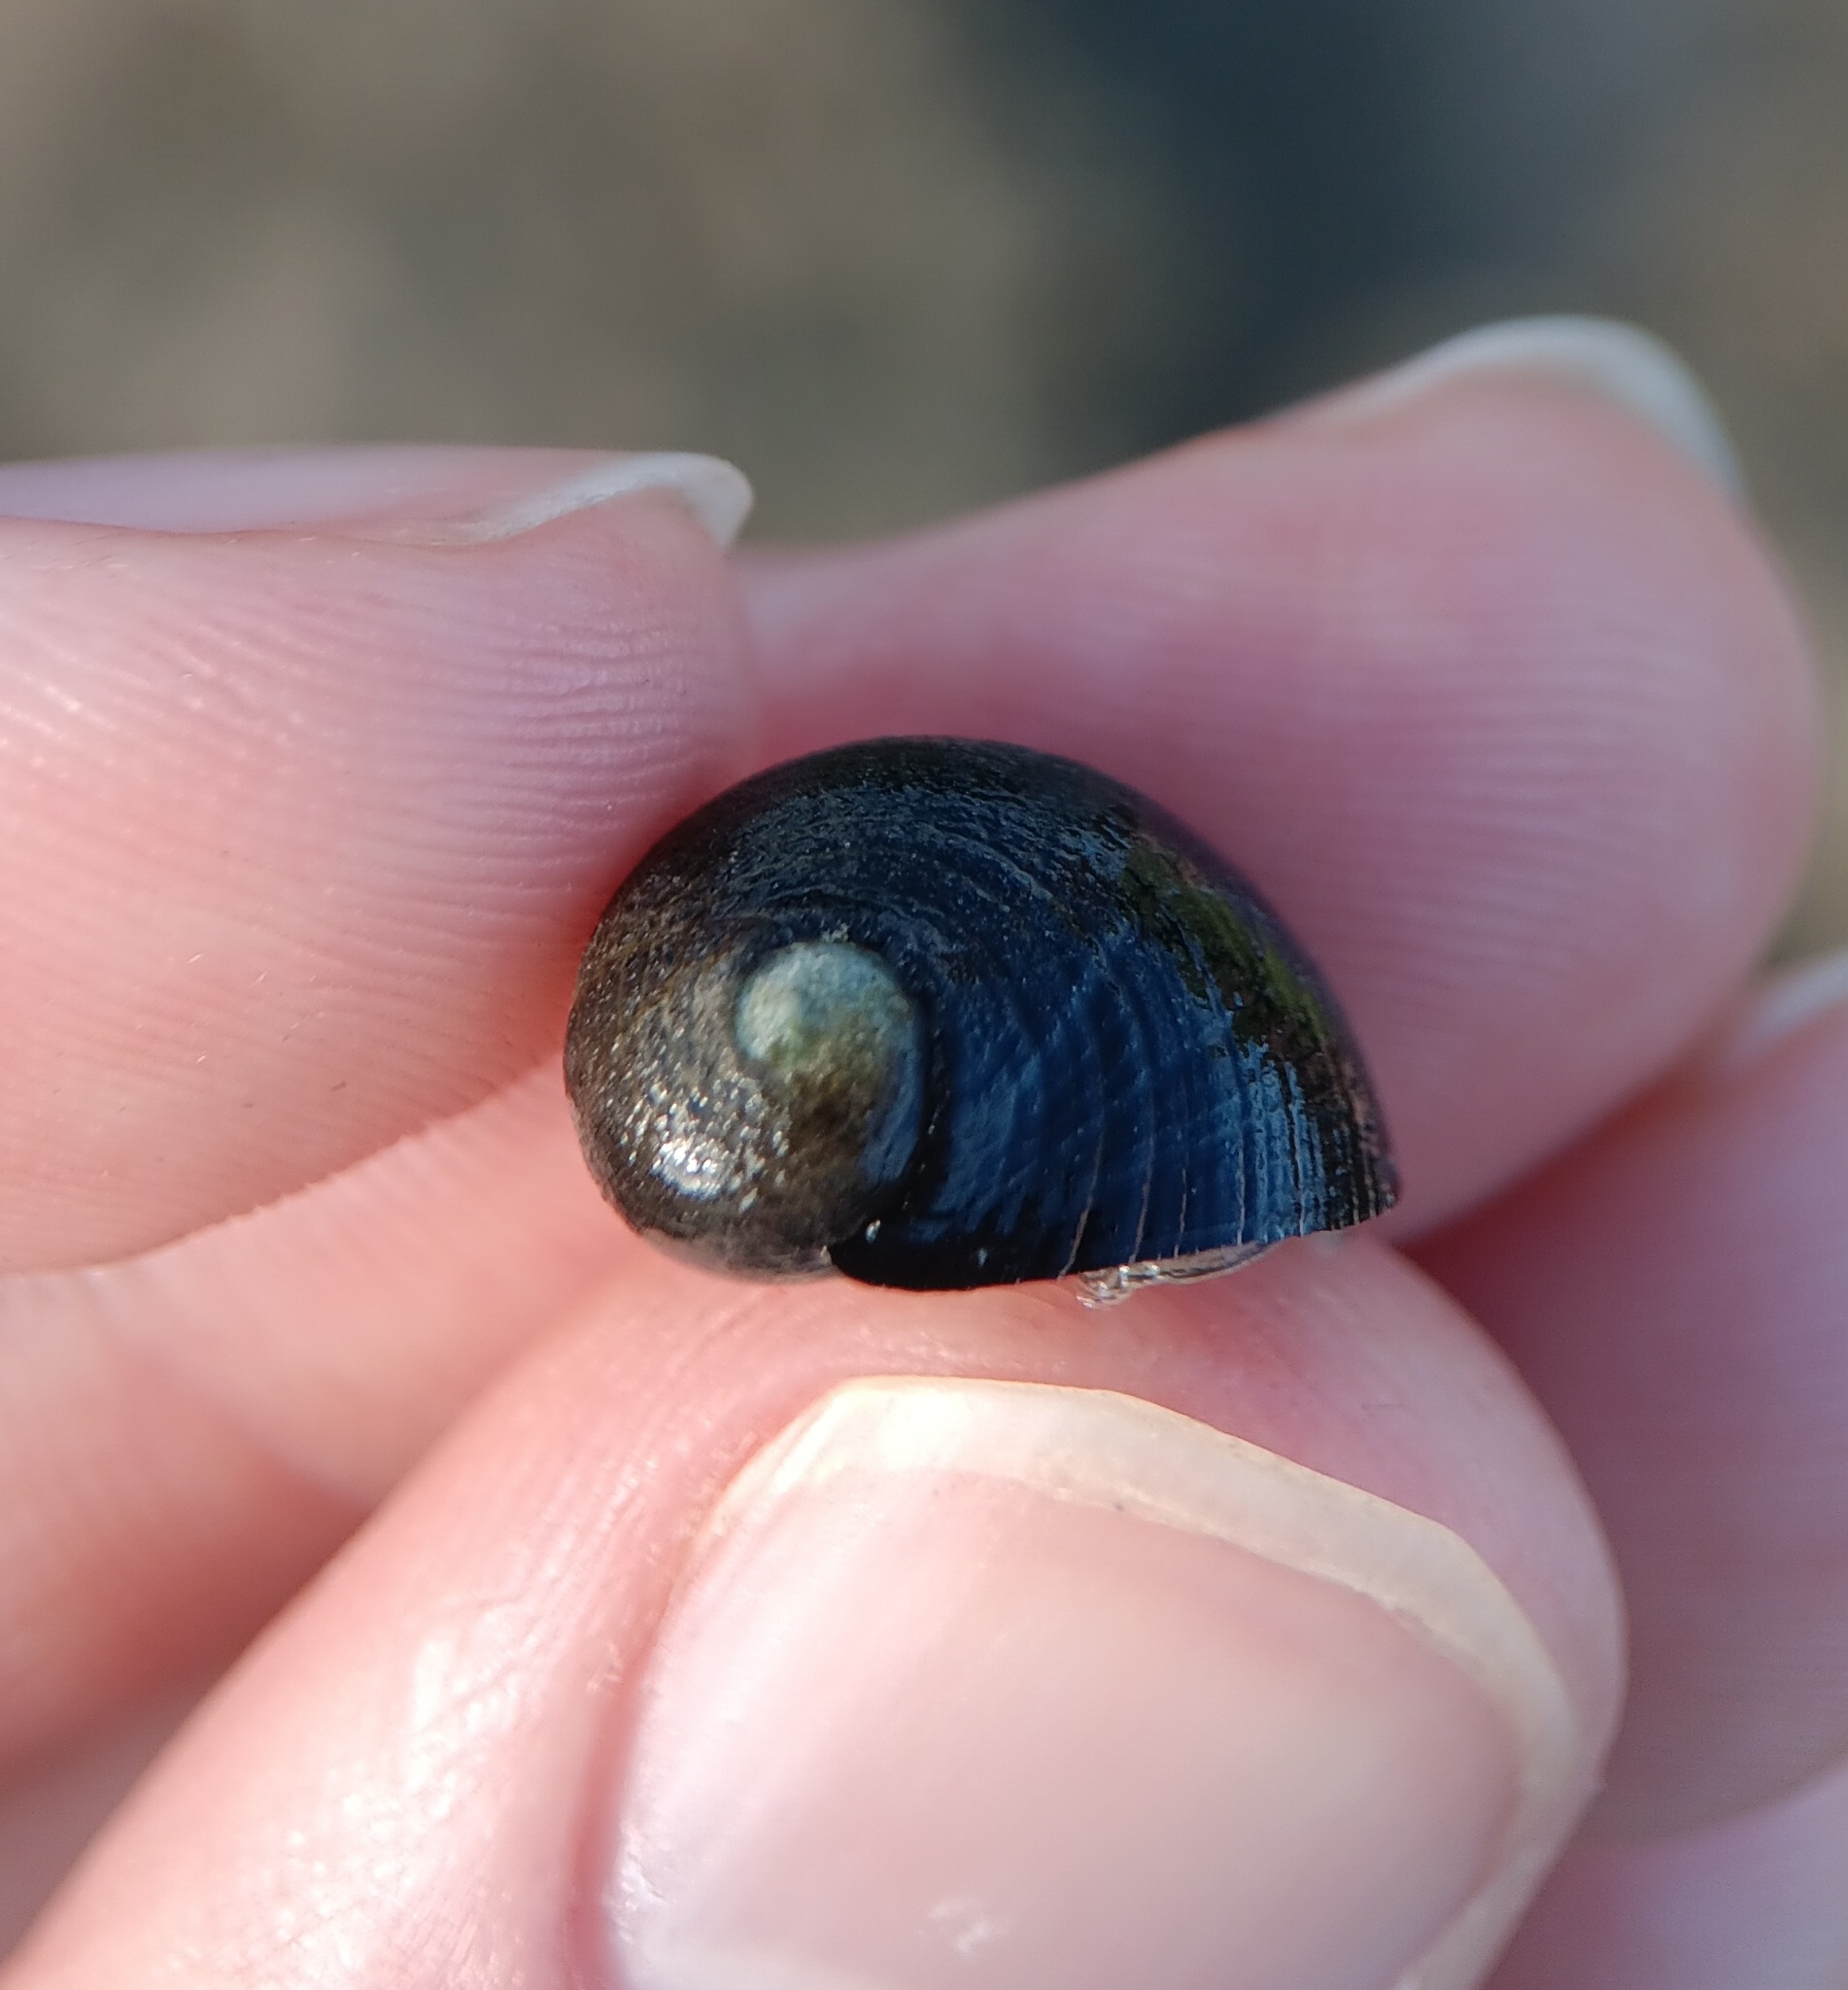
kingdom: Animalia
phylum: Mollusca
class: Gastropoda
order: Cycloneritida
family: Neritidae
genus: Nerita
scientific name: Nerita picea
